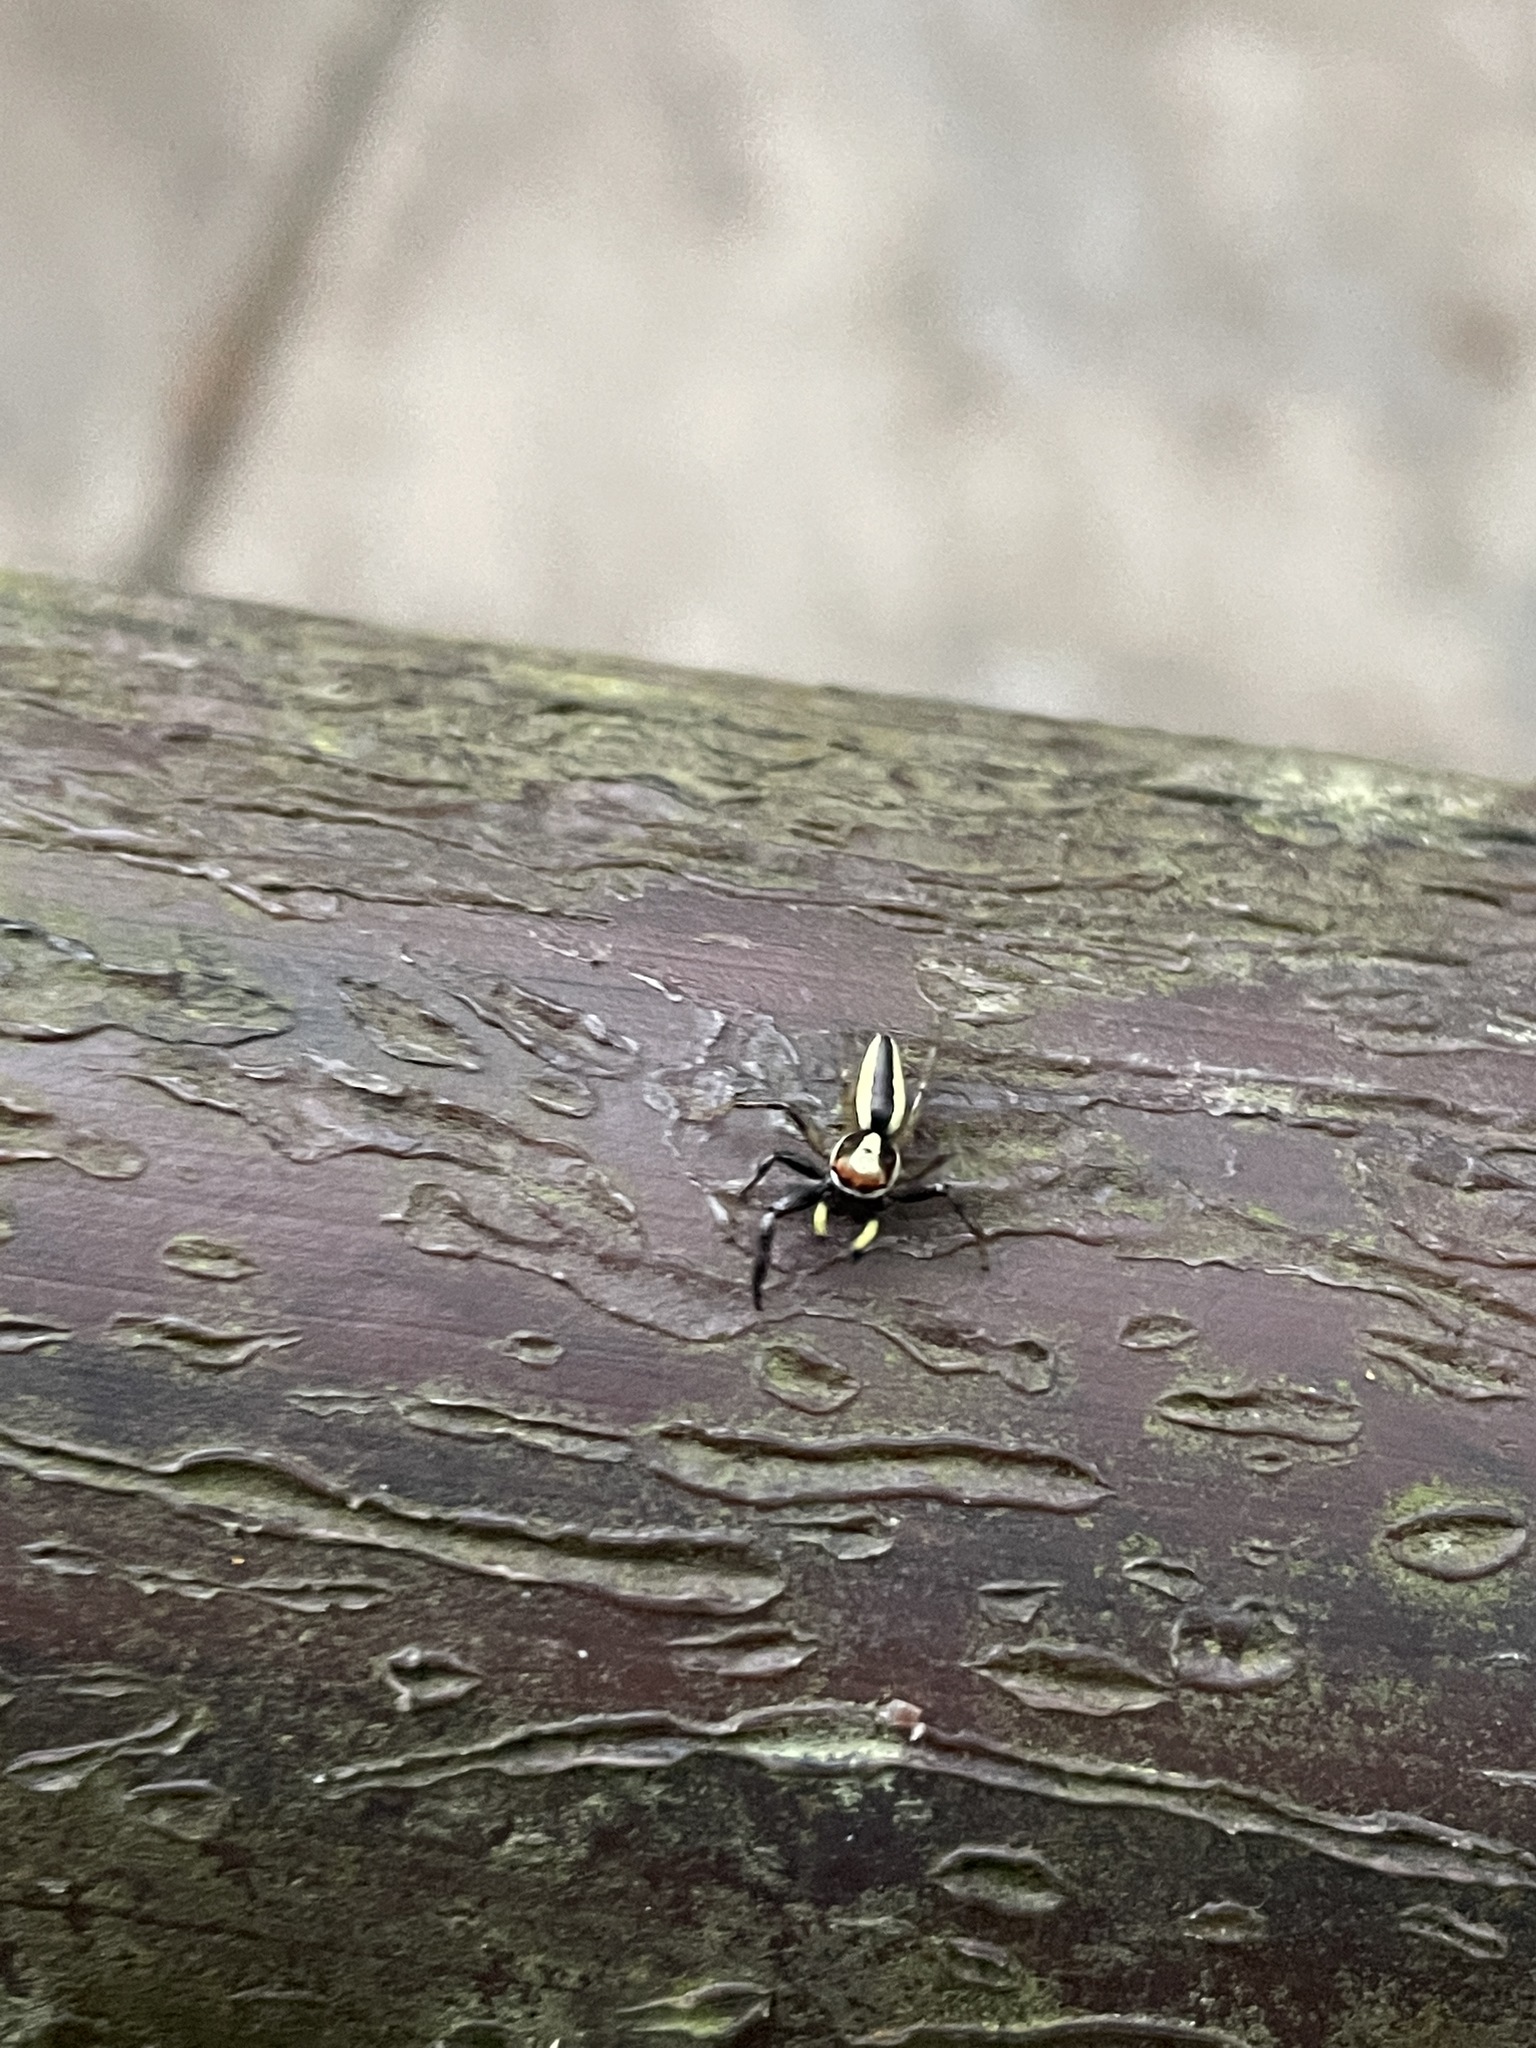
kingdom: Animalia
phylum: Arthropoda
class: Arachnida
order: Araneae
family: Salticidae
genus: Epocilla
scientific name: Epocilla blairei
